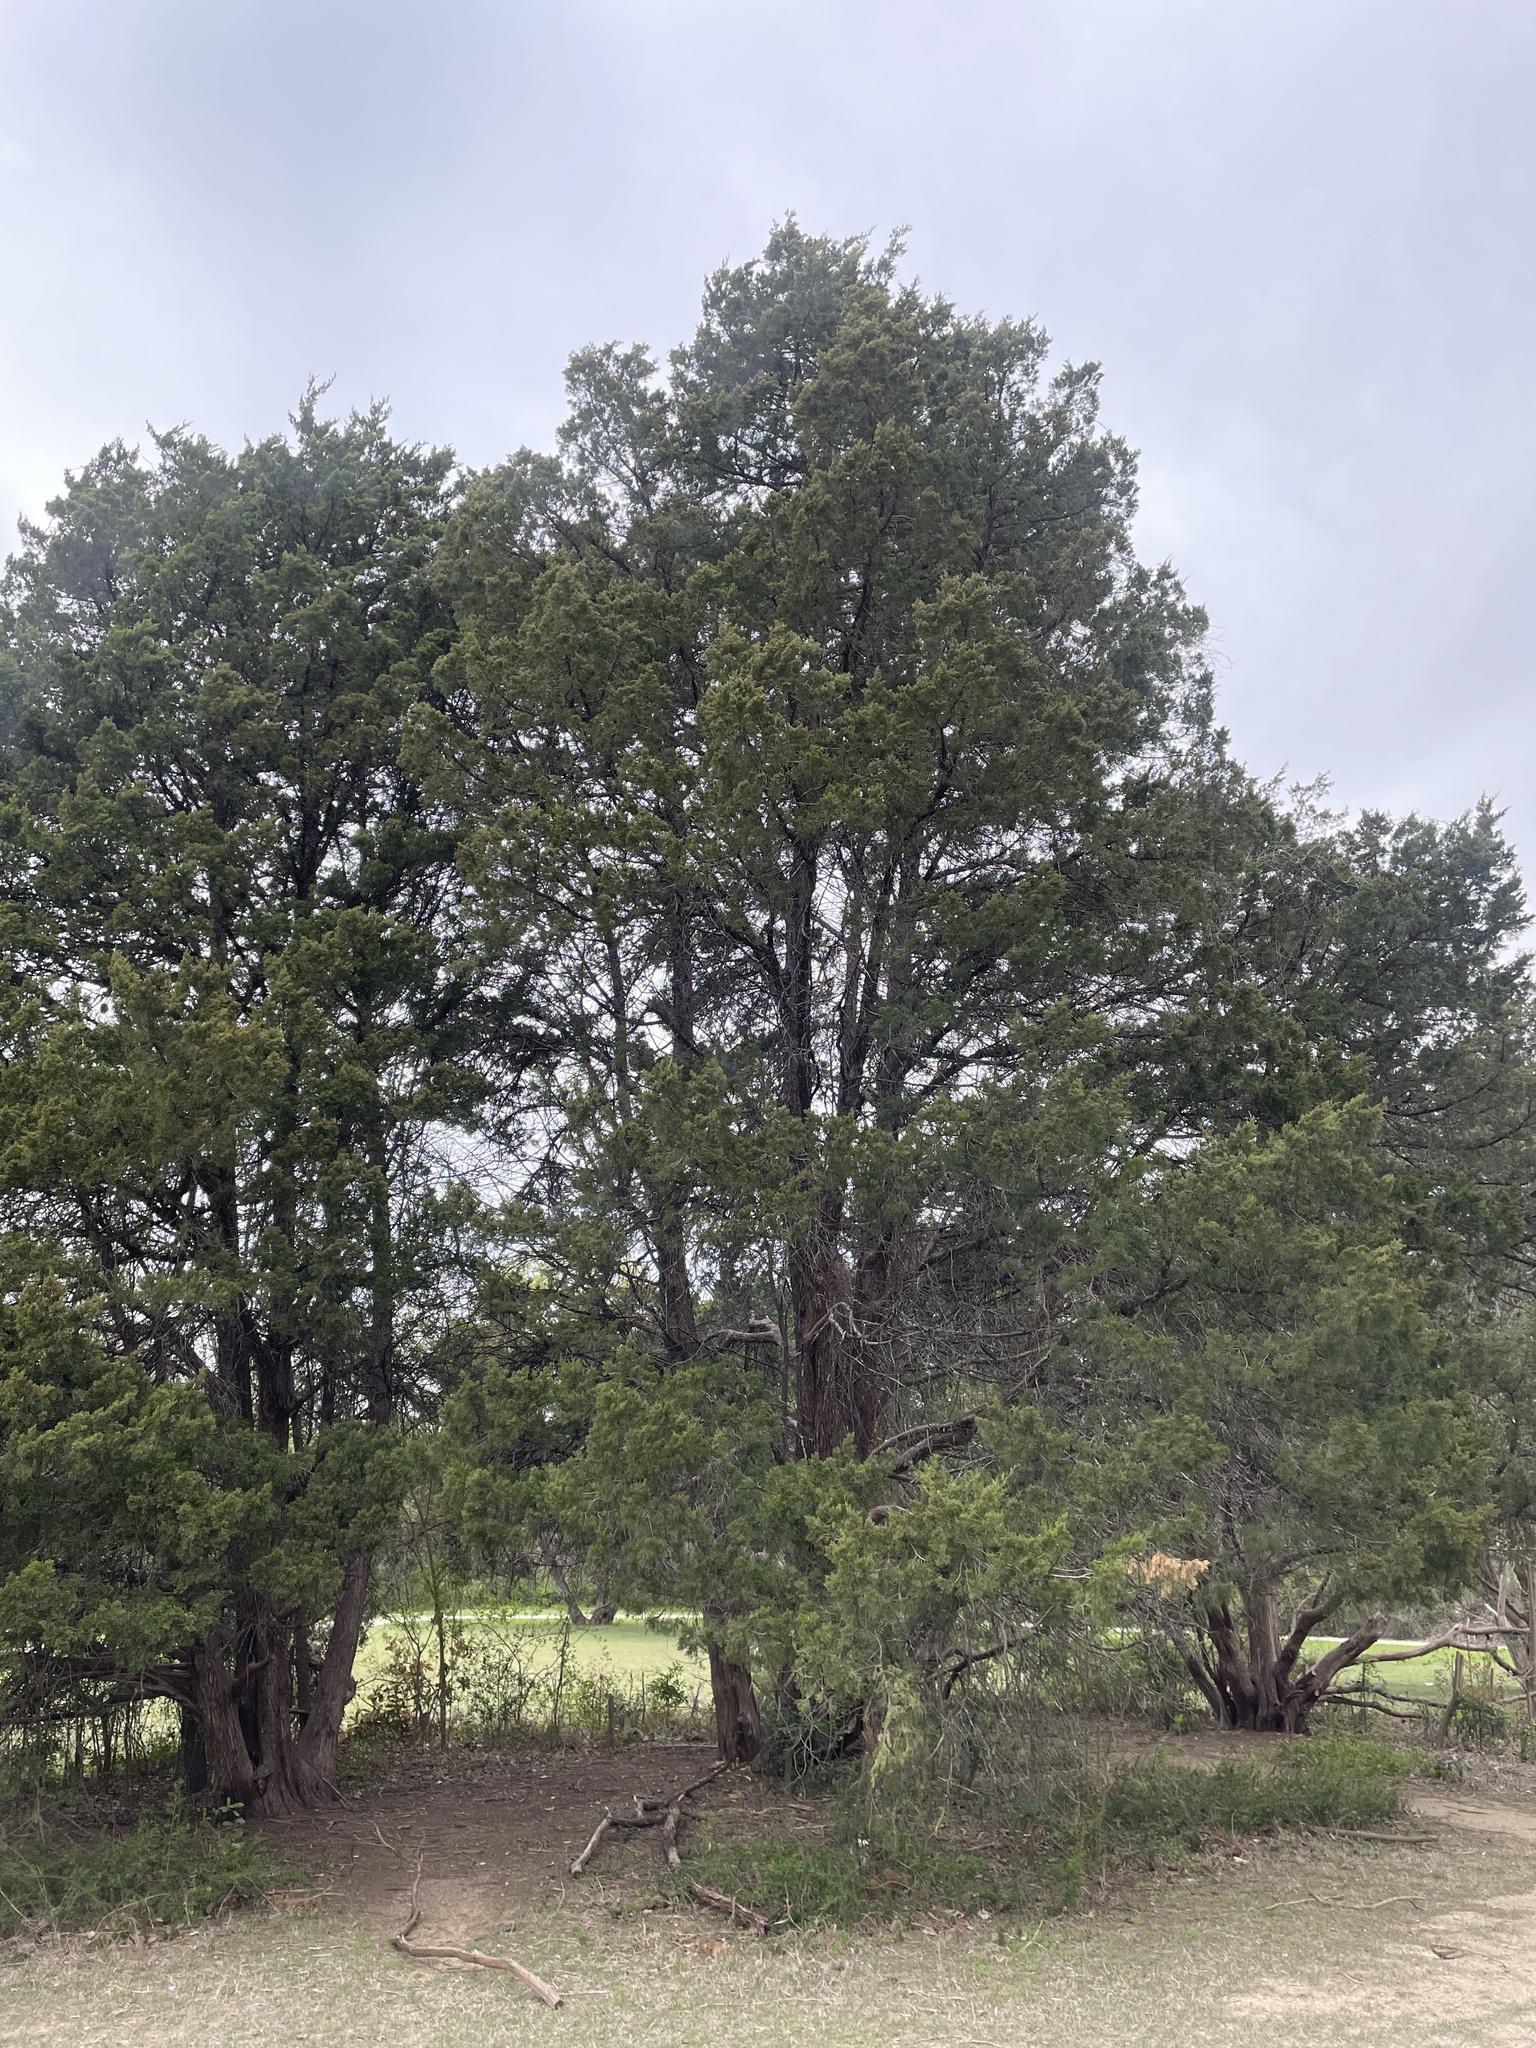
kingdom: Plantae
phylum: Tracheophyta
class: Pinopsida
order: Pinales
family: Cupressaceae
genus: Juniperus
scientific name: Juniperus virginiana
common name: Red juniper
